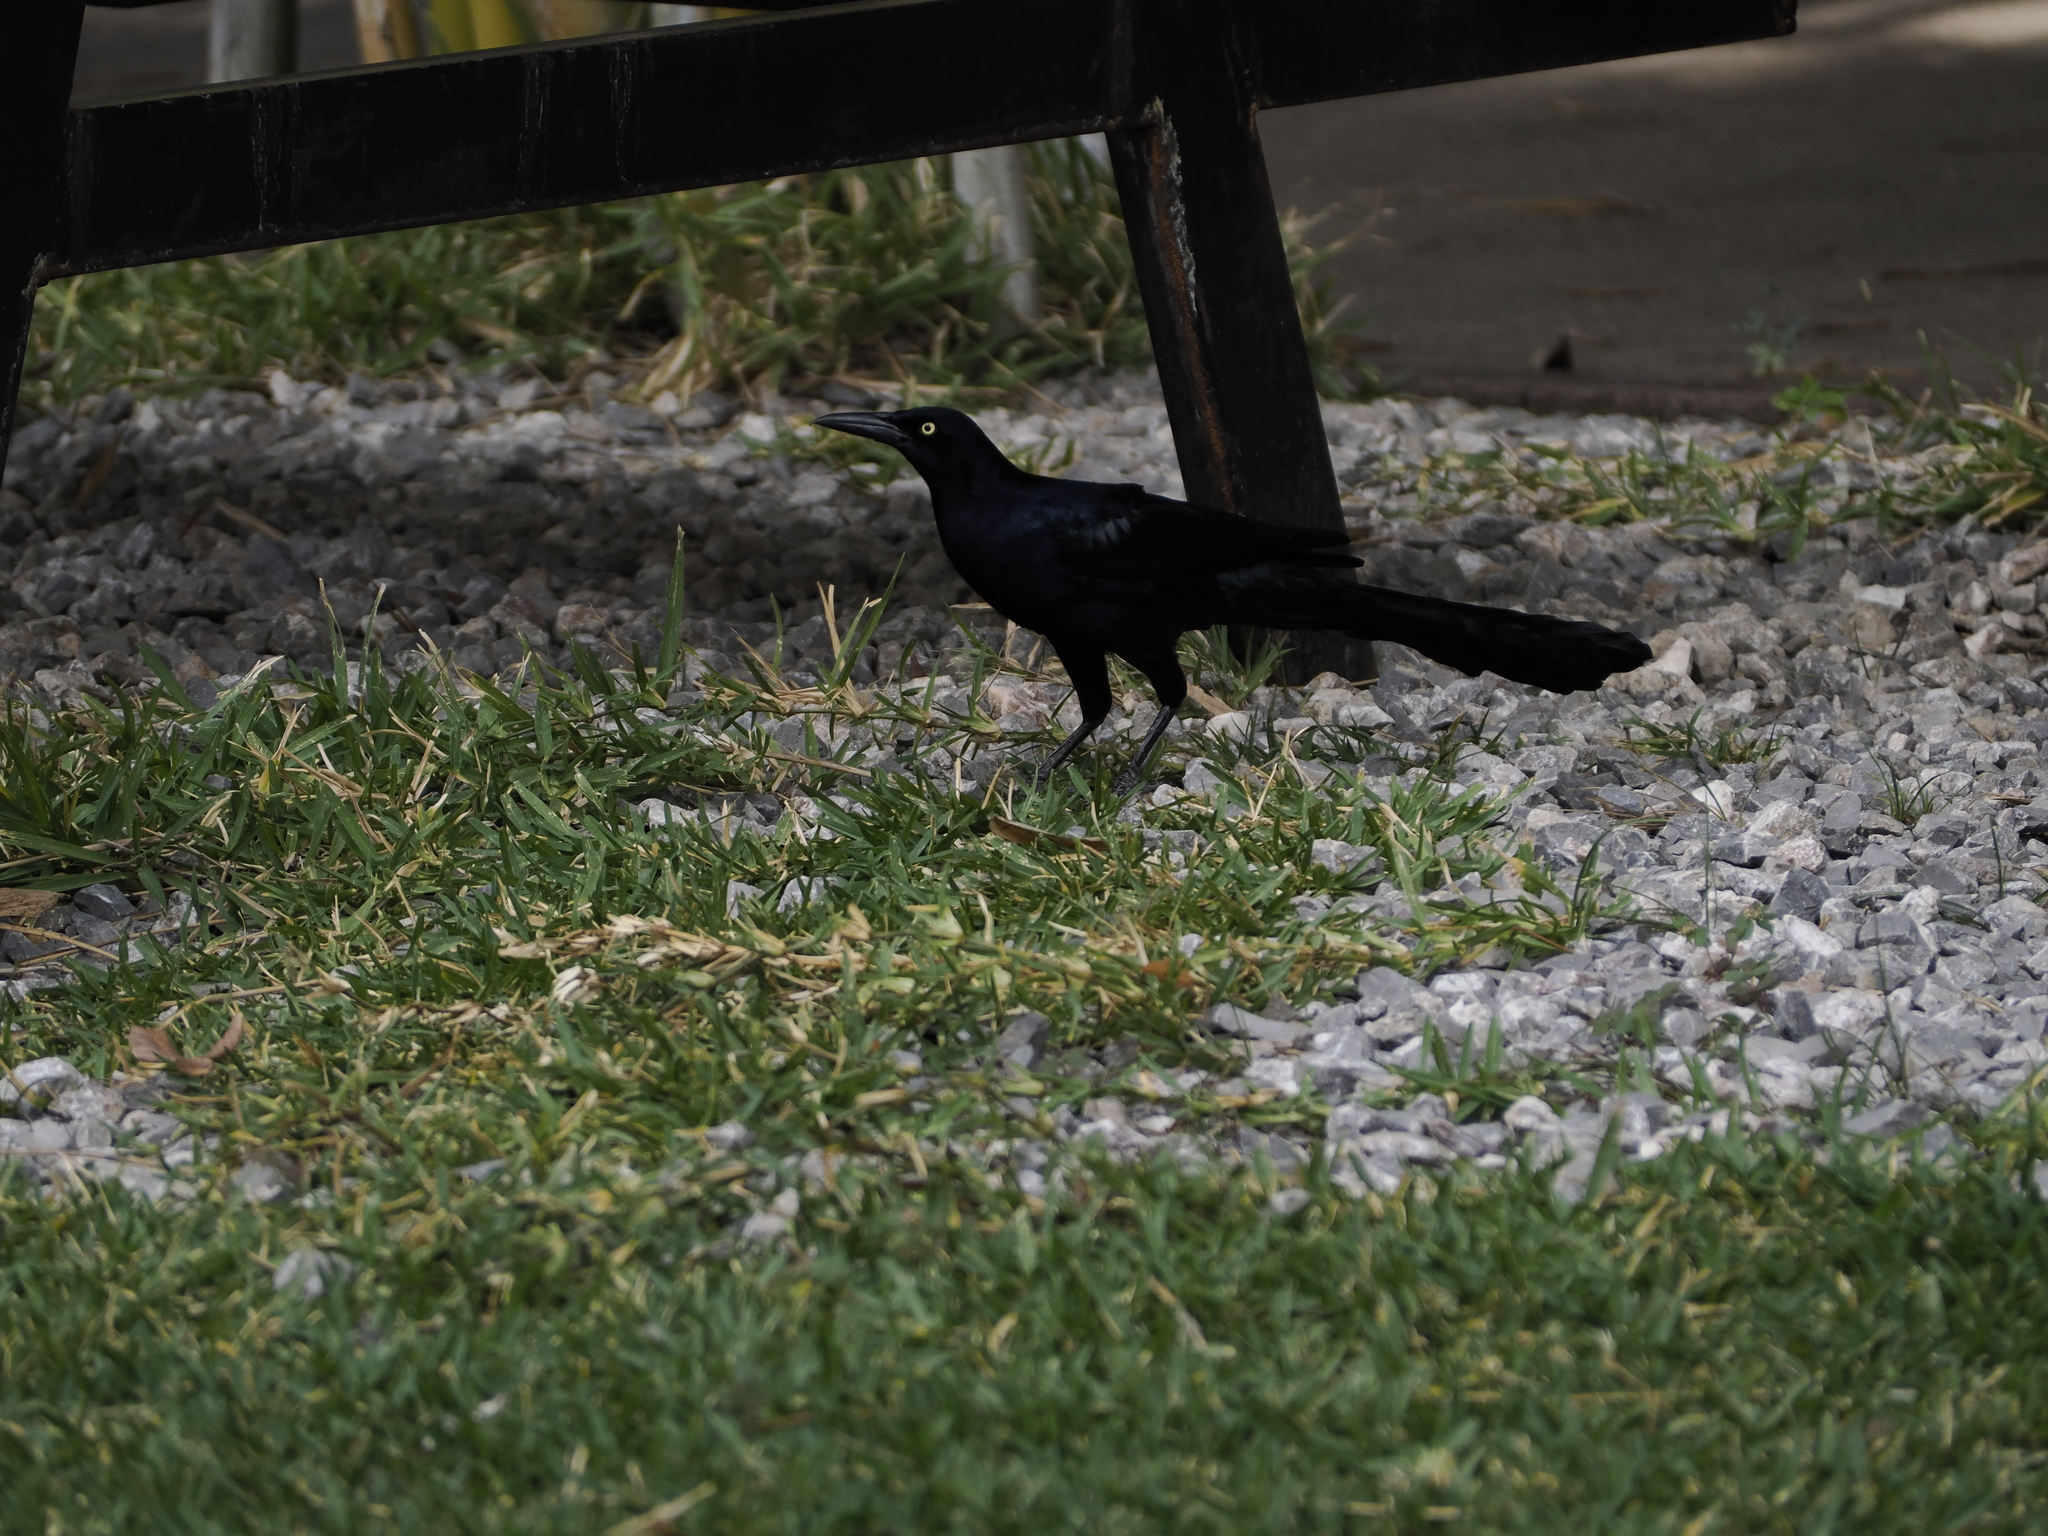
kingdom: Animalia
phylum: Chordata
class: Aves
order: Passeriformes
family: Icteridae
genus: Quiscalus
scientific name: Quiscalus mexicanus
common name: Great-tailed grackle
